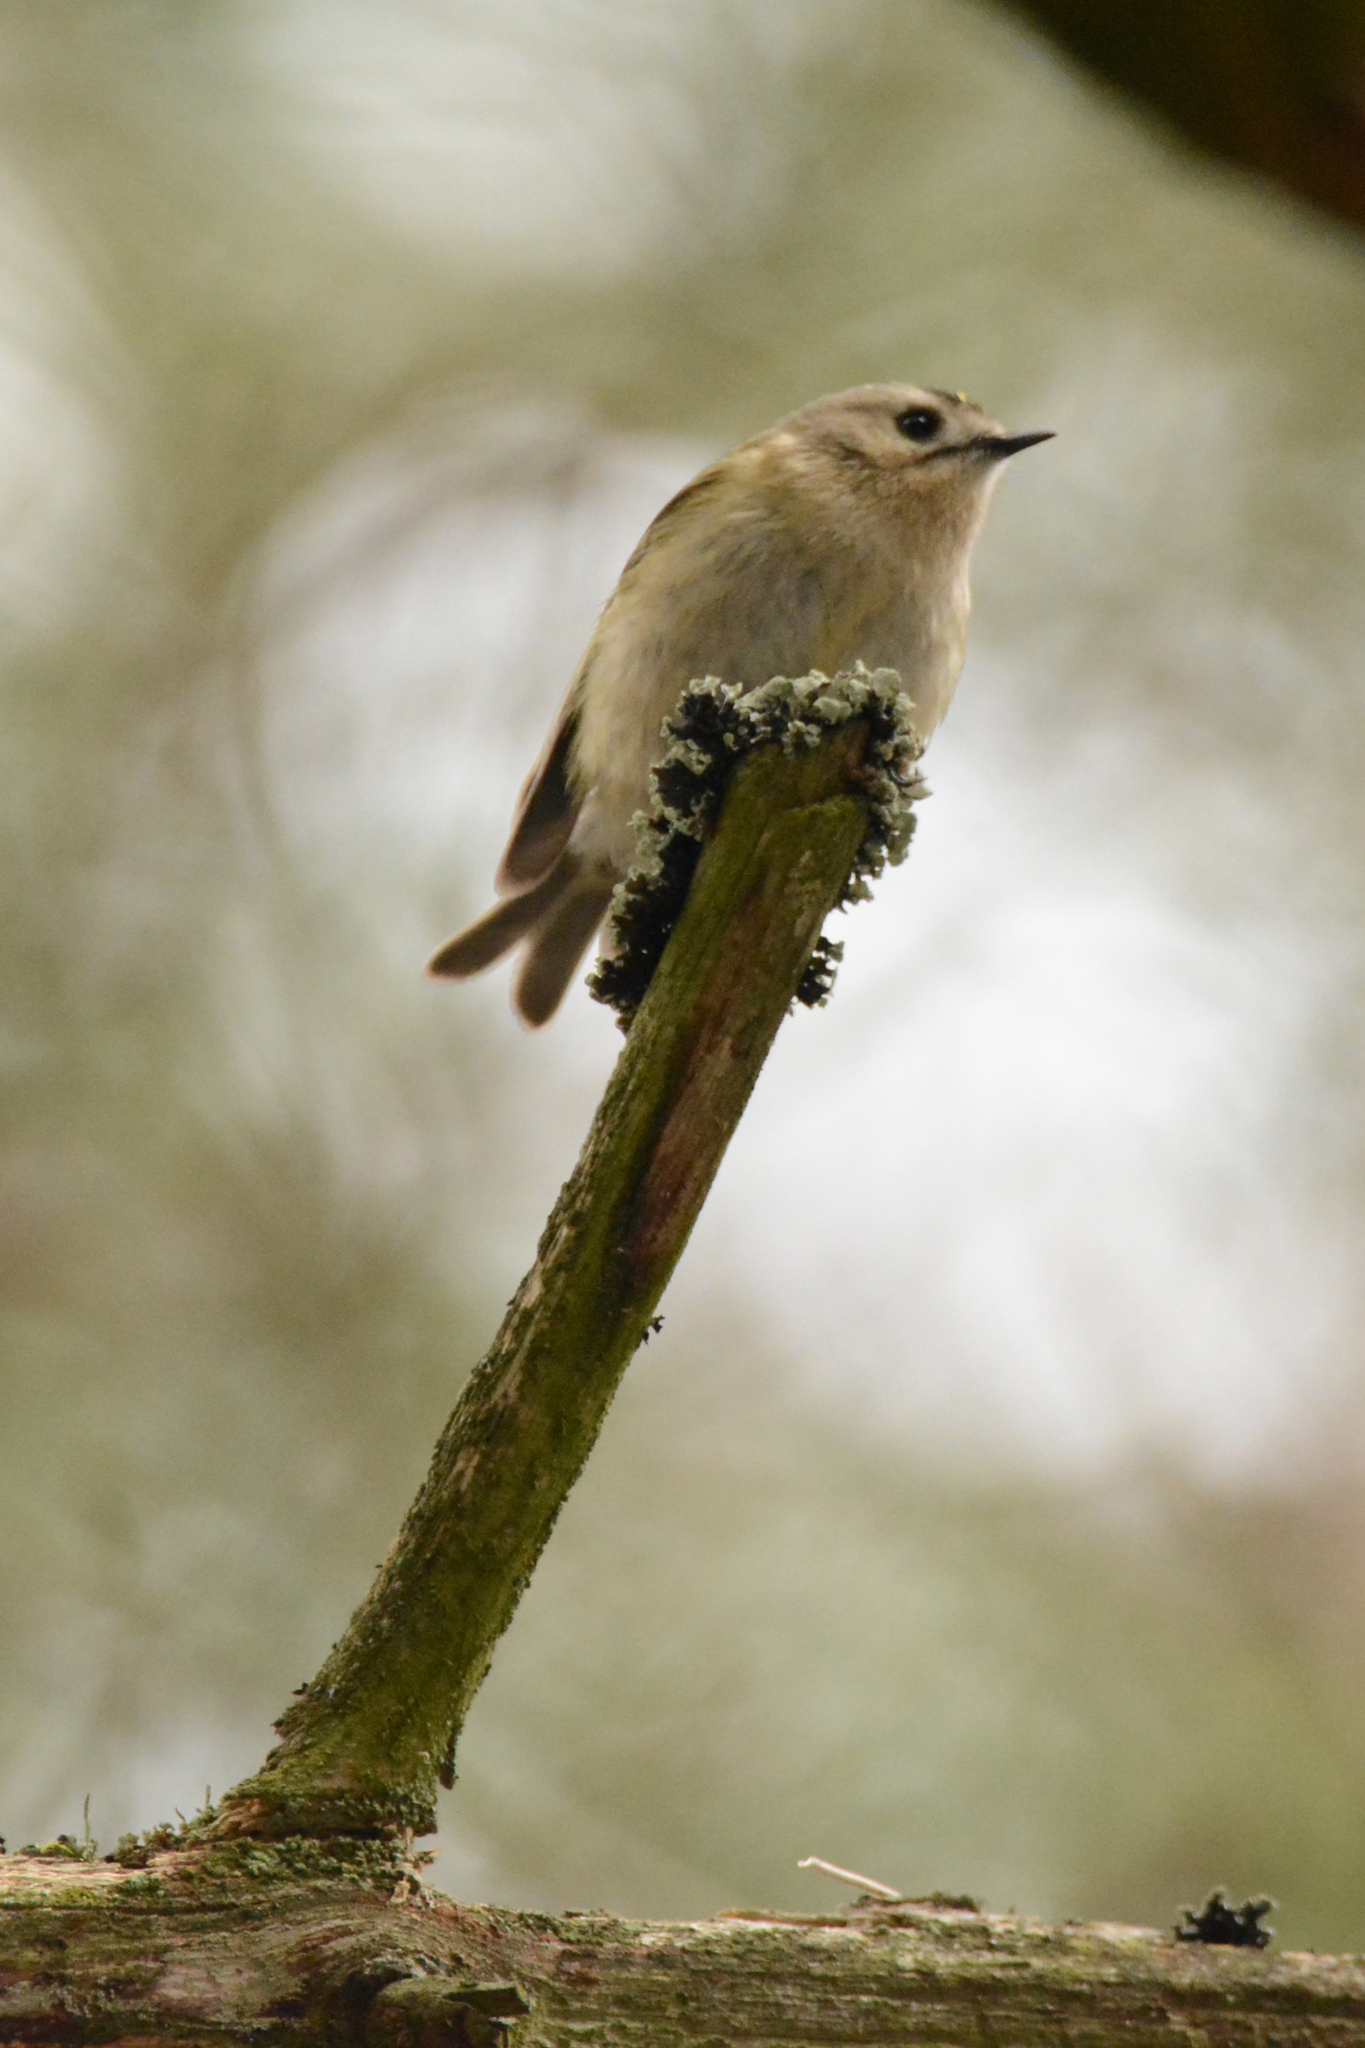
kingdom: Animalia
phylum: Chordata
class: Aves
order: Passeriformes
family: Regulidae
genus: Regulus
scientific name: Regulus regulus
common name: Goldcrest
